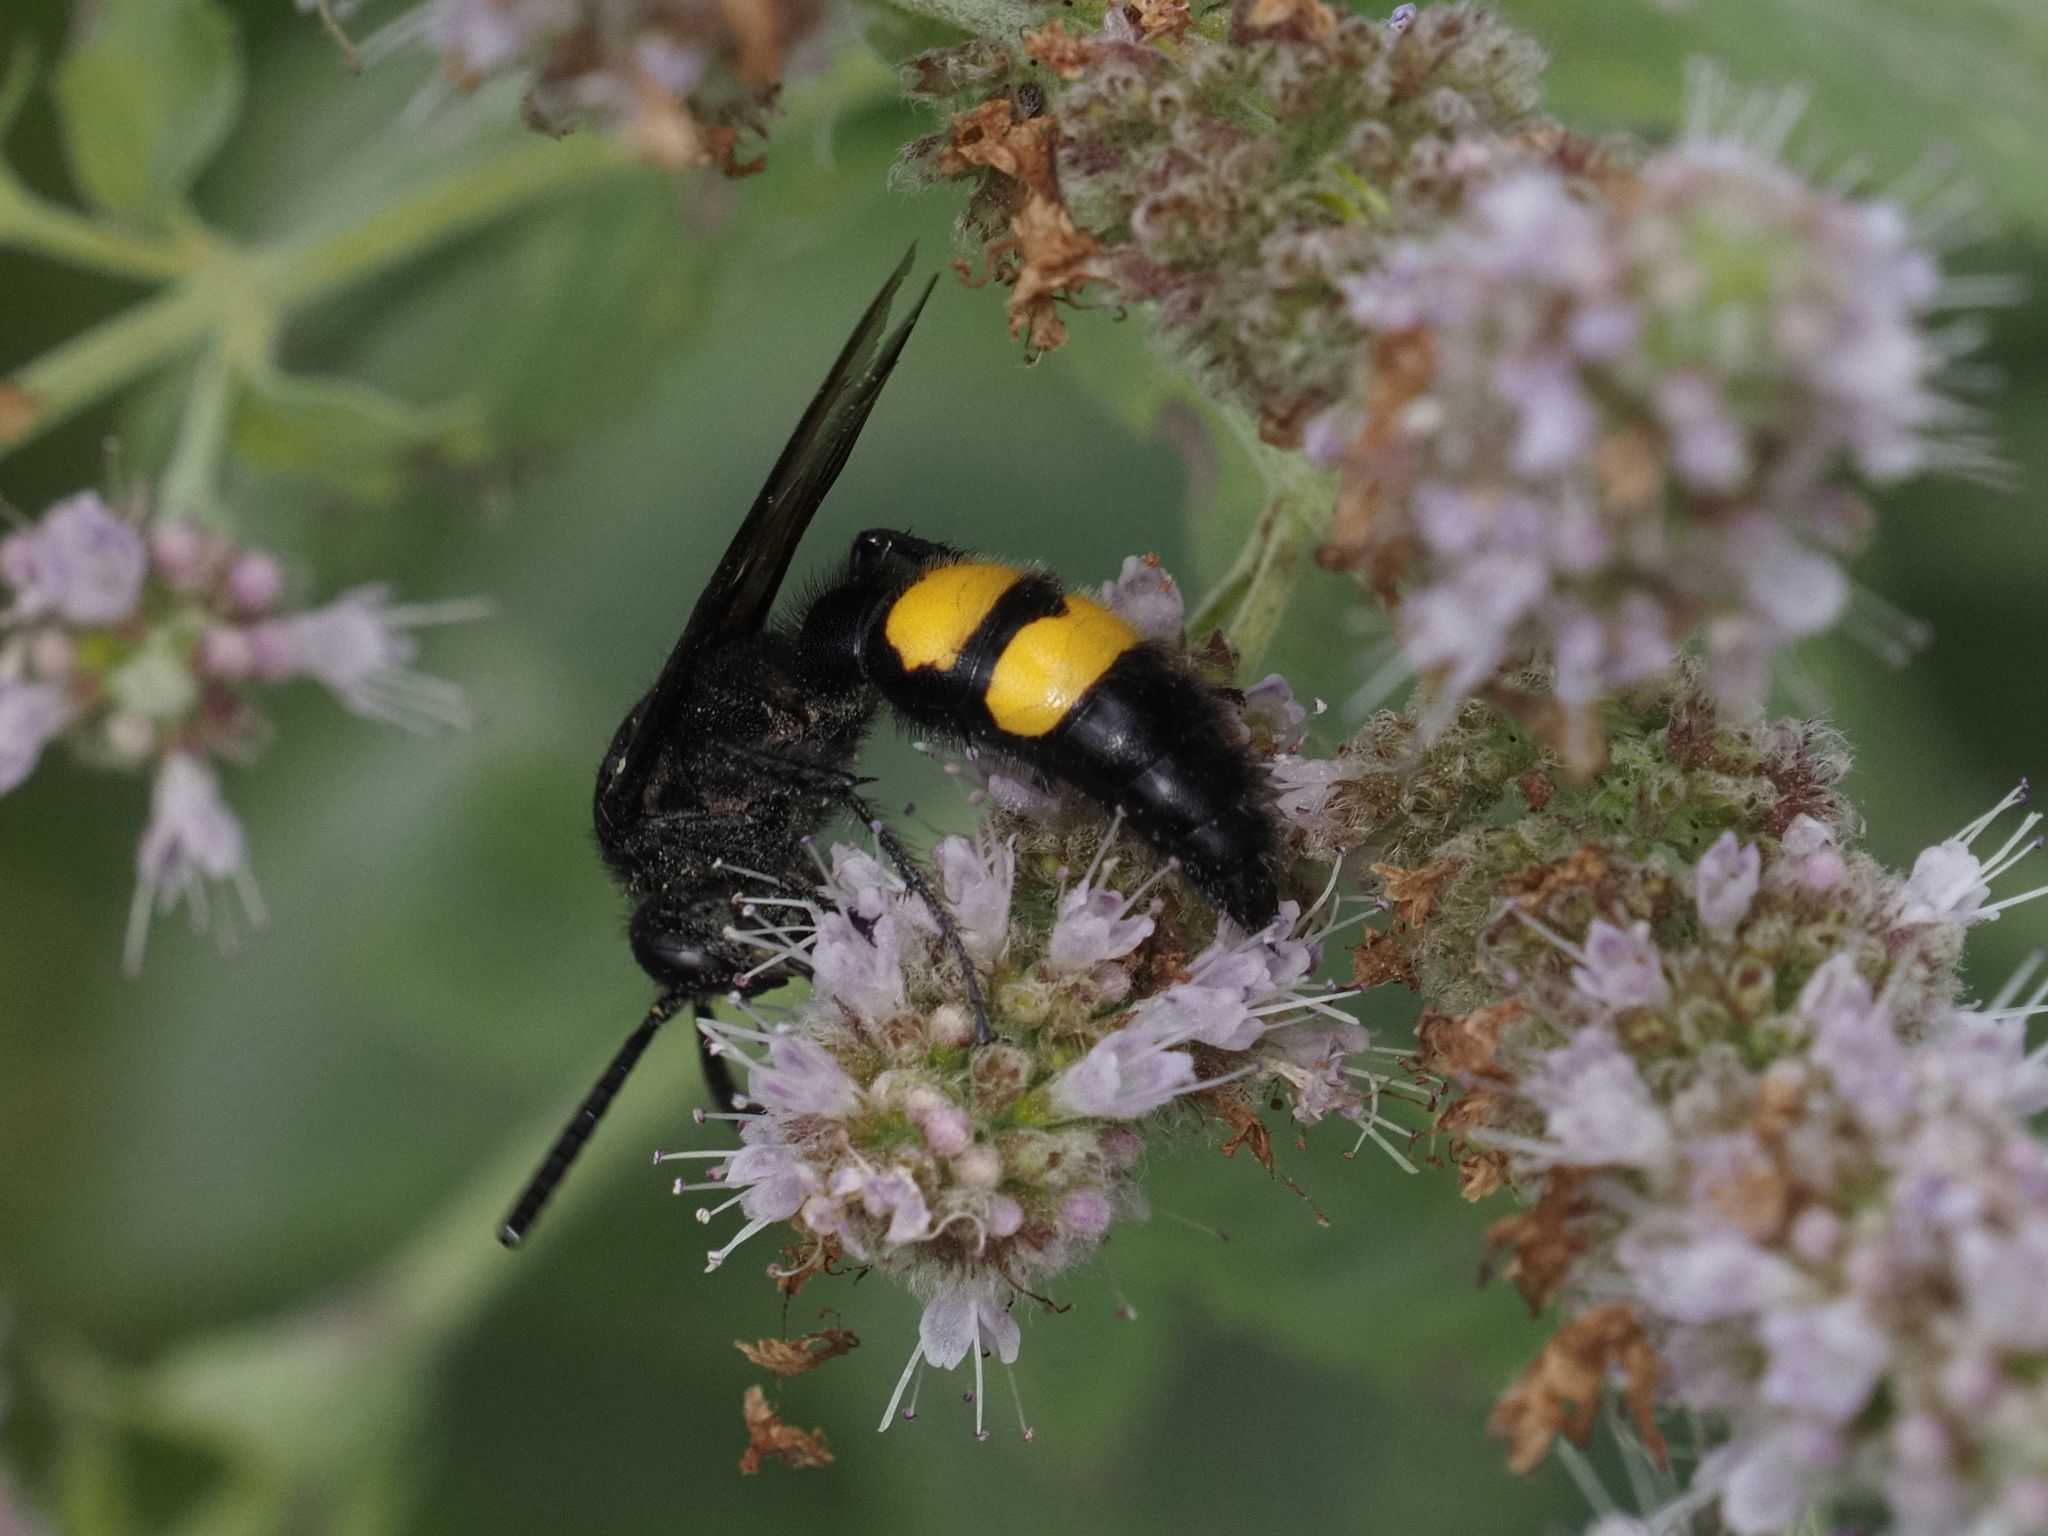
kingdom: Animalia
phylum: Arthropoda
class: Insecta
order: Hymenoptera
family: Scoliidae
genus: Scolia
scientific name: Scolia hirta
